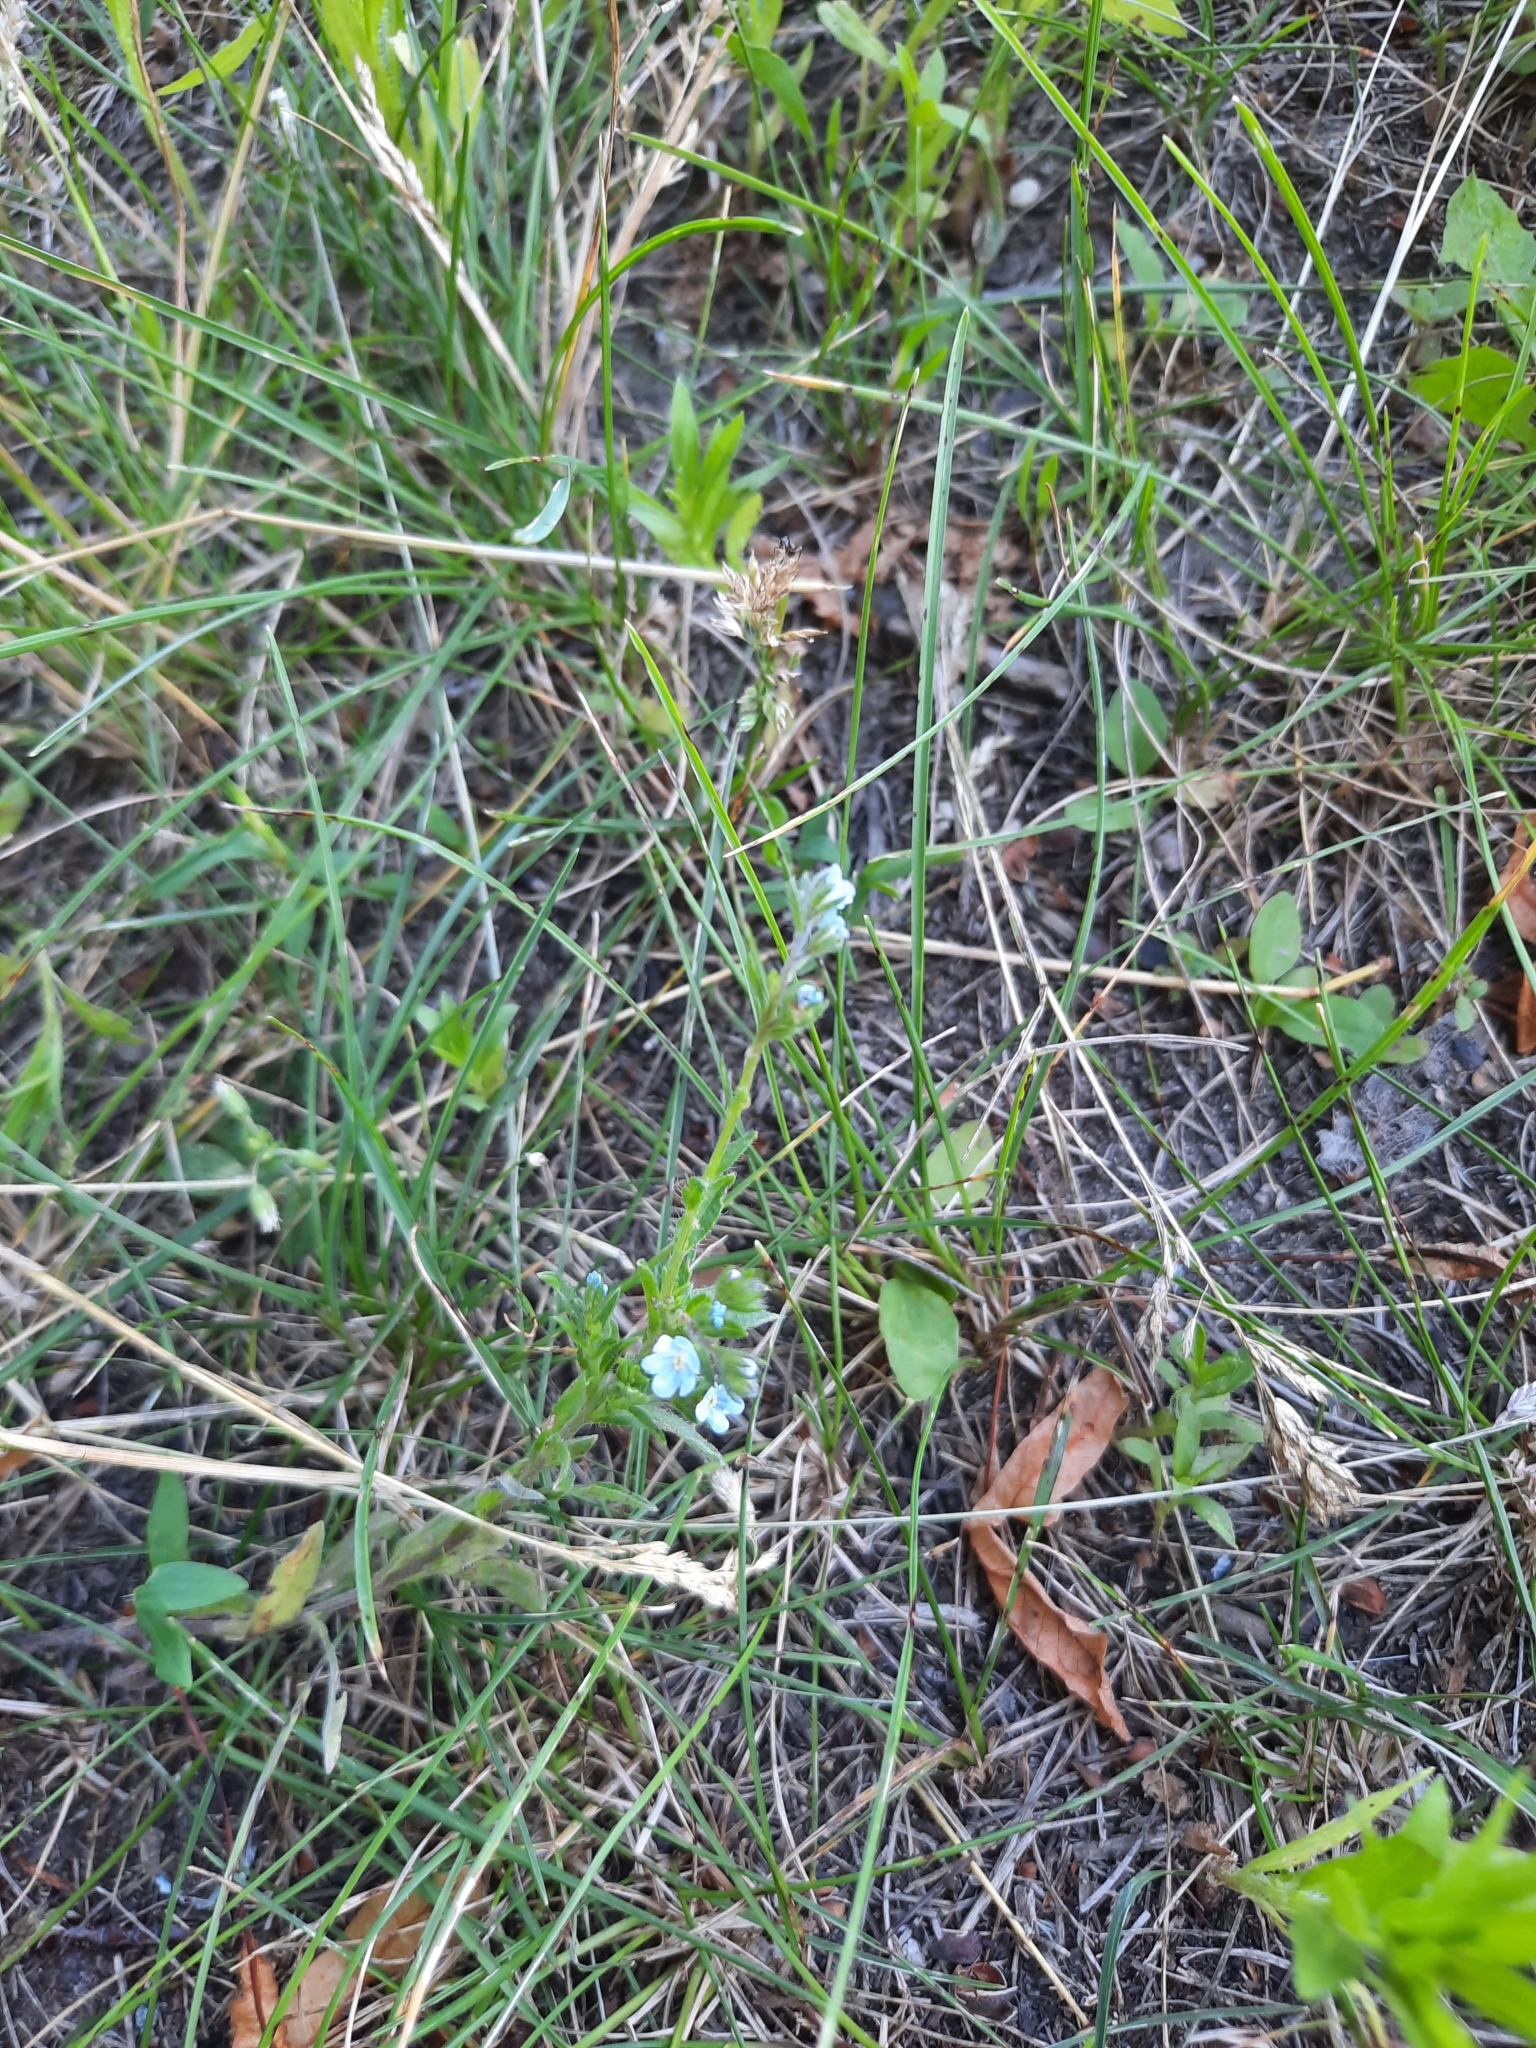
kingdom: Plantae
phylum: Tracheophyta
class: Magnoliopsida
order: Boraginales
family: Boraginaceae
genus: Lappula
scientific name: Lappula squarrosa
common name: European stickseed
